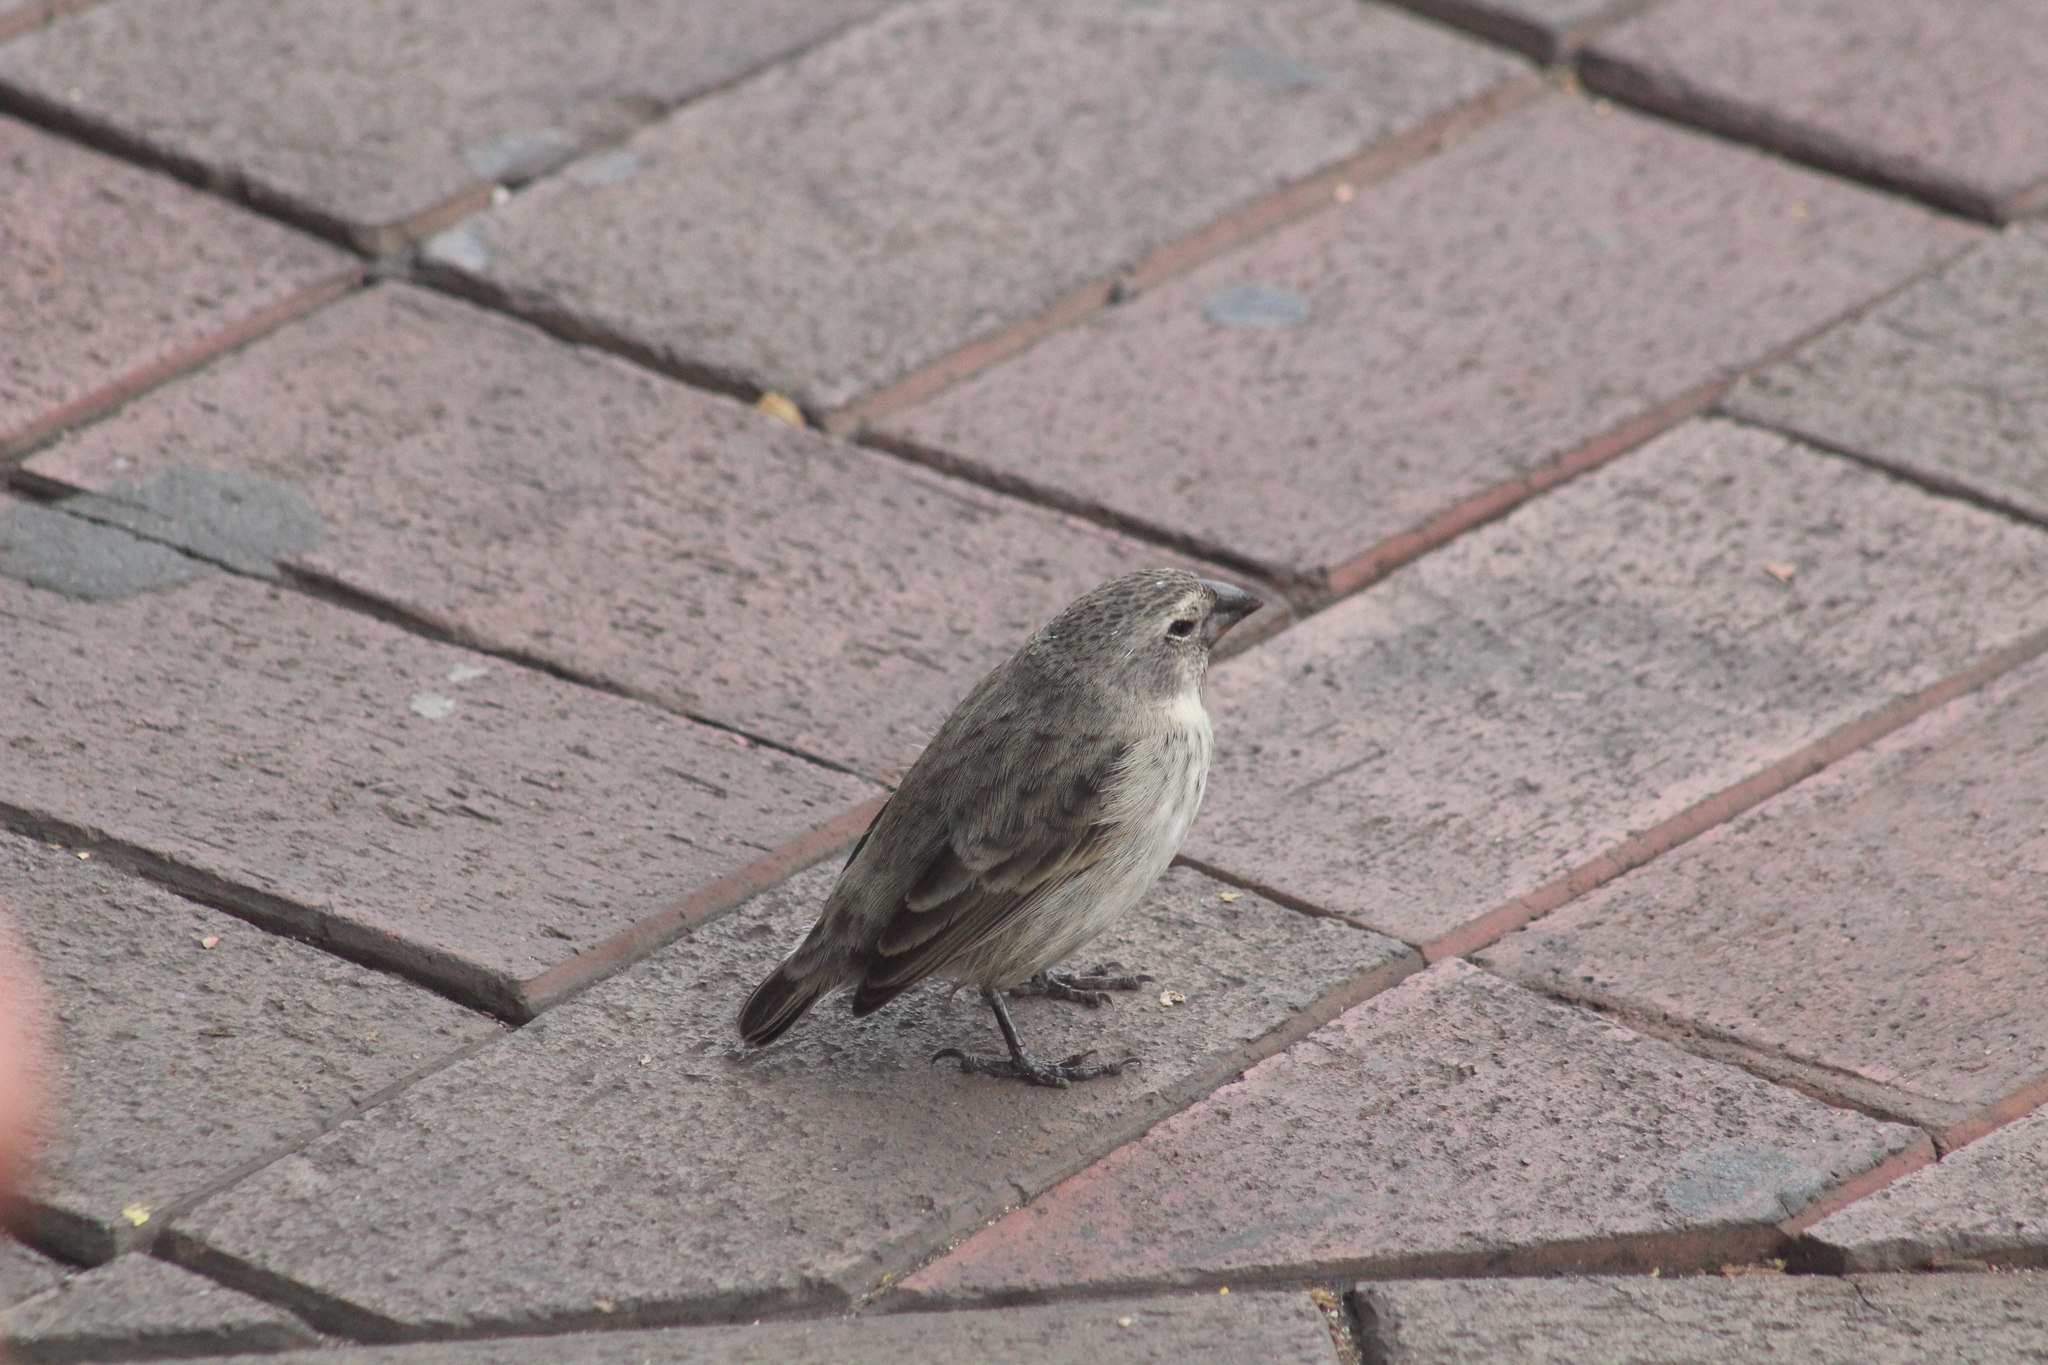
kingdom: Animalia
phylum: Chordata
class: Aves
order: Passeriformes
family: Thraupidae
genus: Geospiza
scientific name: Geospiza fortis
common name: Medium ground finch
